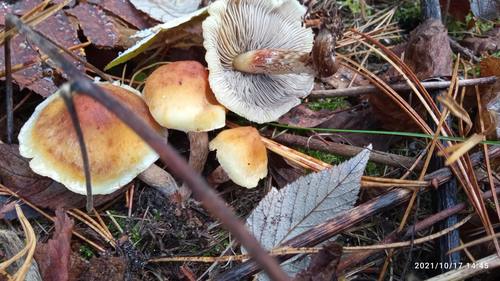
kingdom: Fungi
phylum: Basidiomycota
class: Agaricomycetes
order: Agaricales
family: Strophariaceae
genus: Hypholoma
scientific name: Hypholoma lateritium
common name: Brick caps
